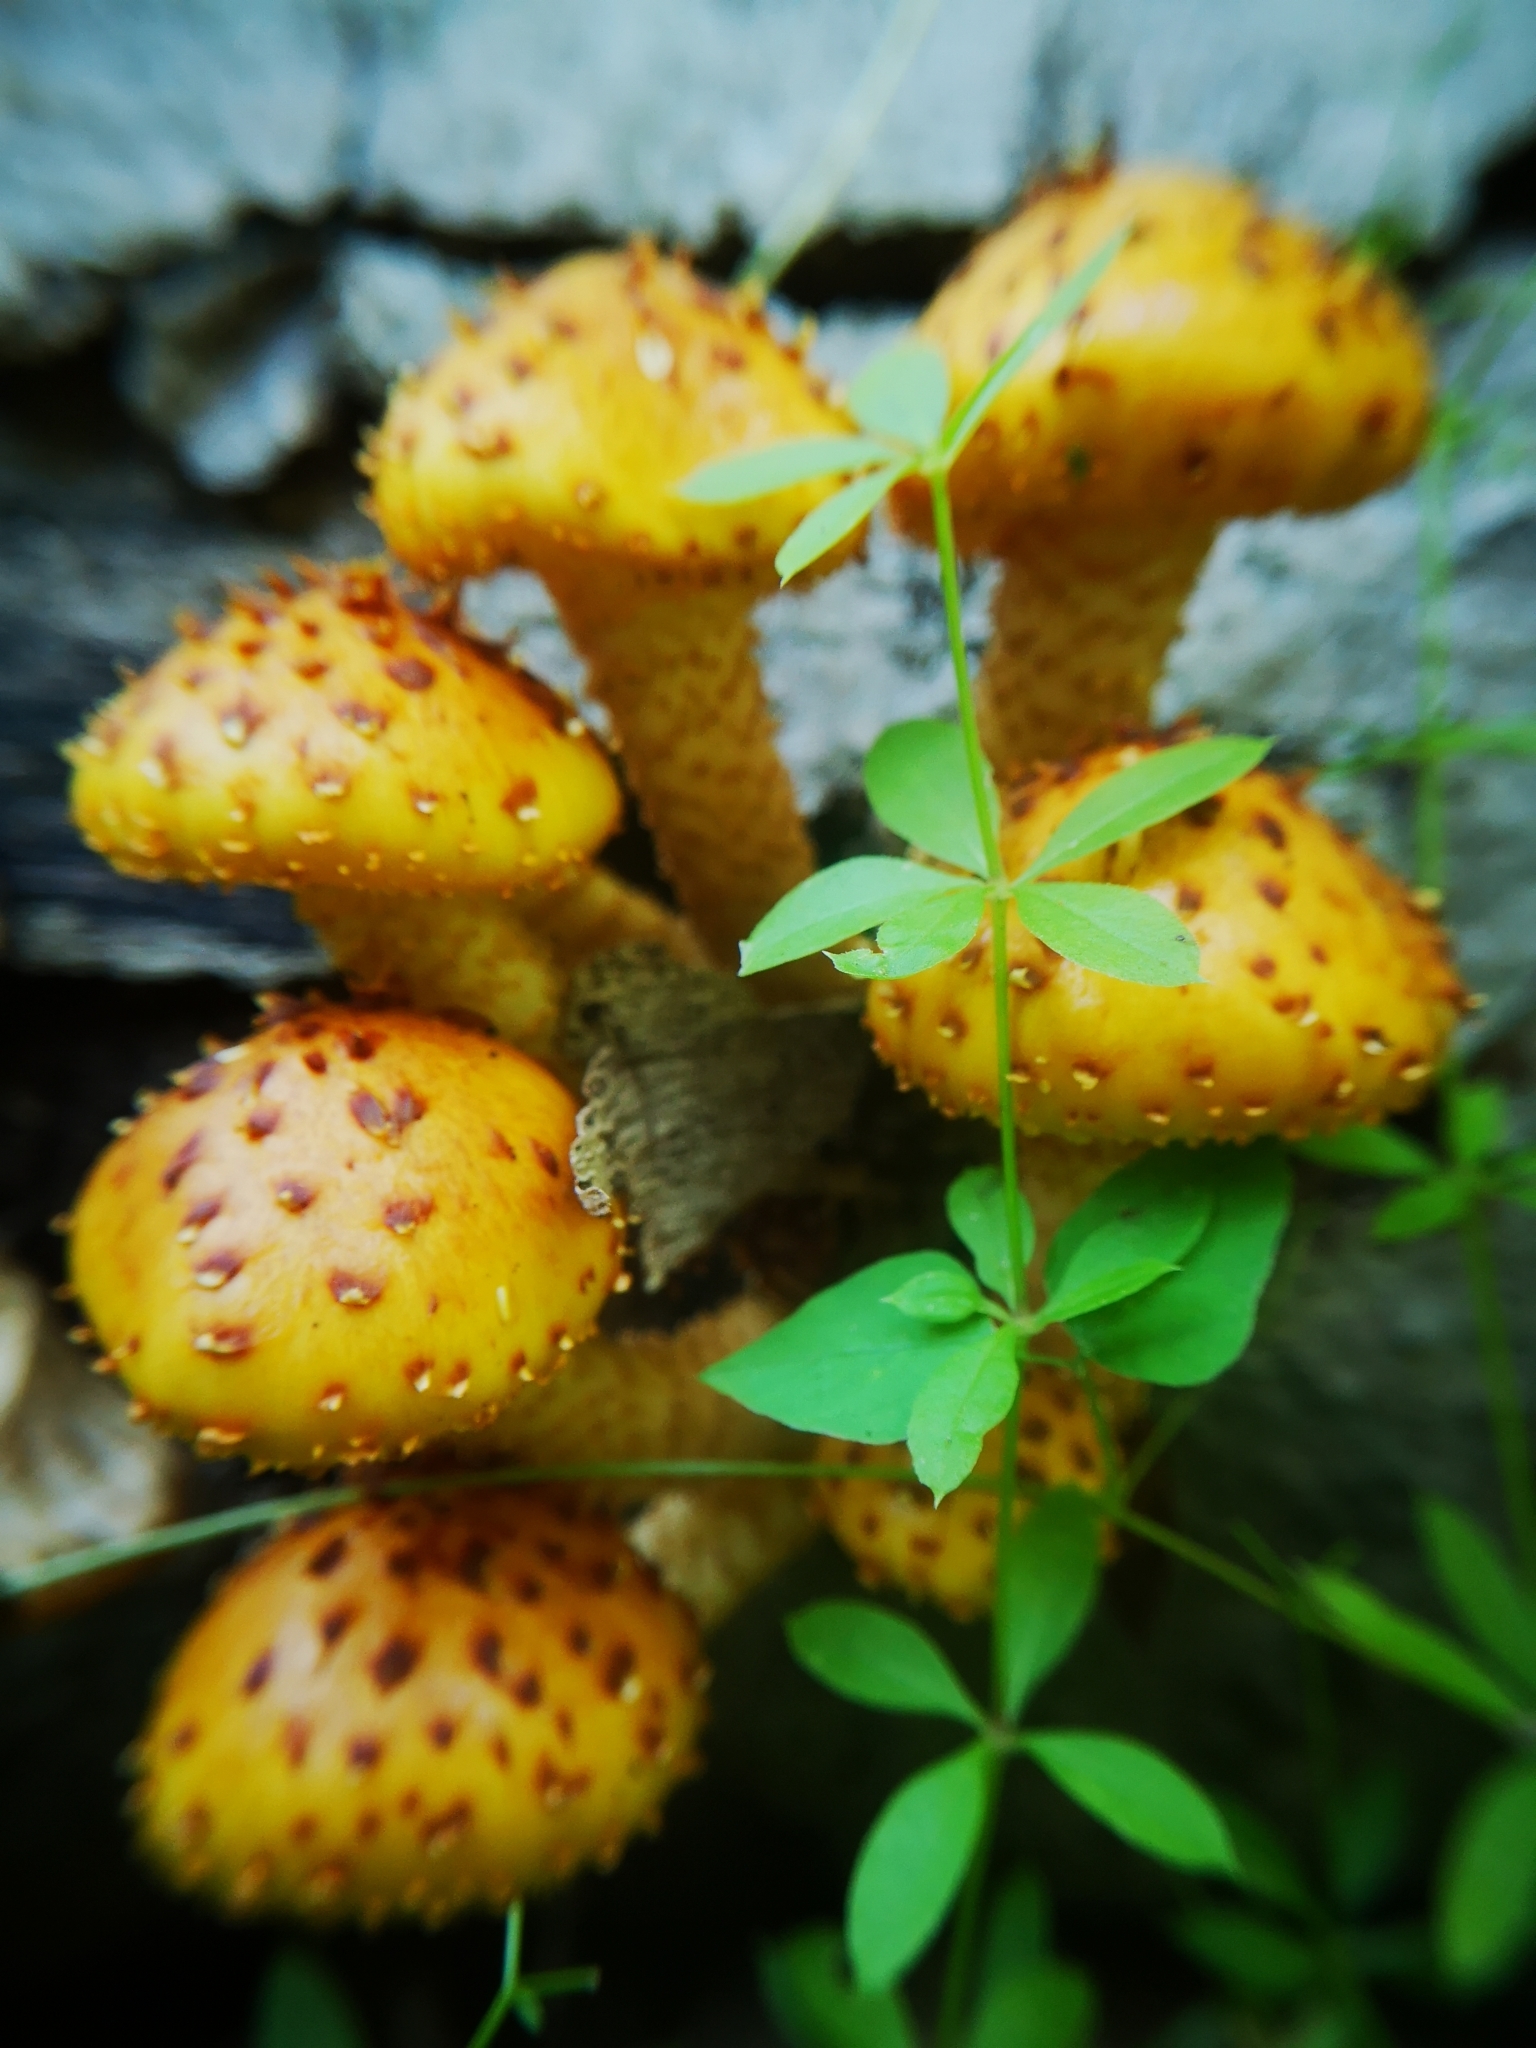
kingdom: Fungi
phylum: Basidiomycota
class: Agaricomycetes
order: Agaricales
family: Strophariaceae
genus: Pholiota
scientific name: Pholiota aurivella
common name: Golden scalycap
